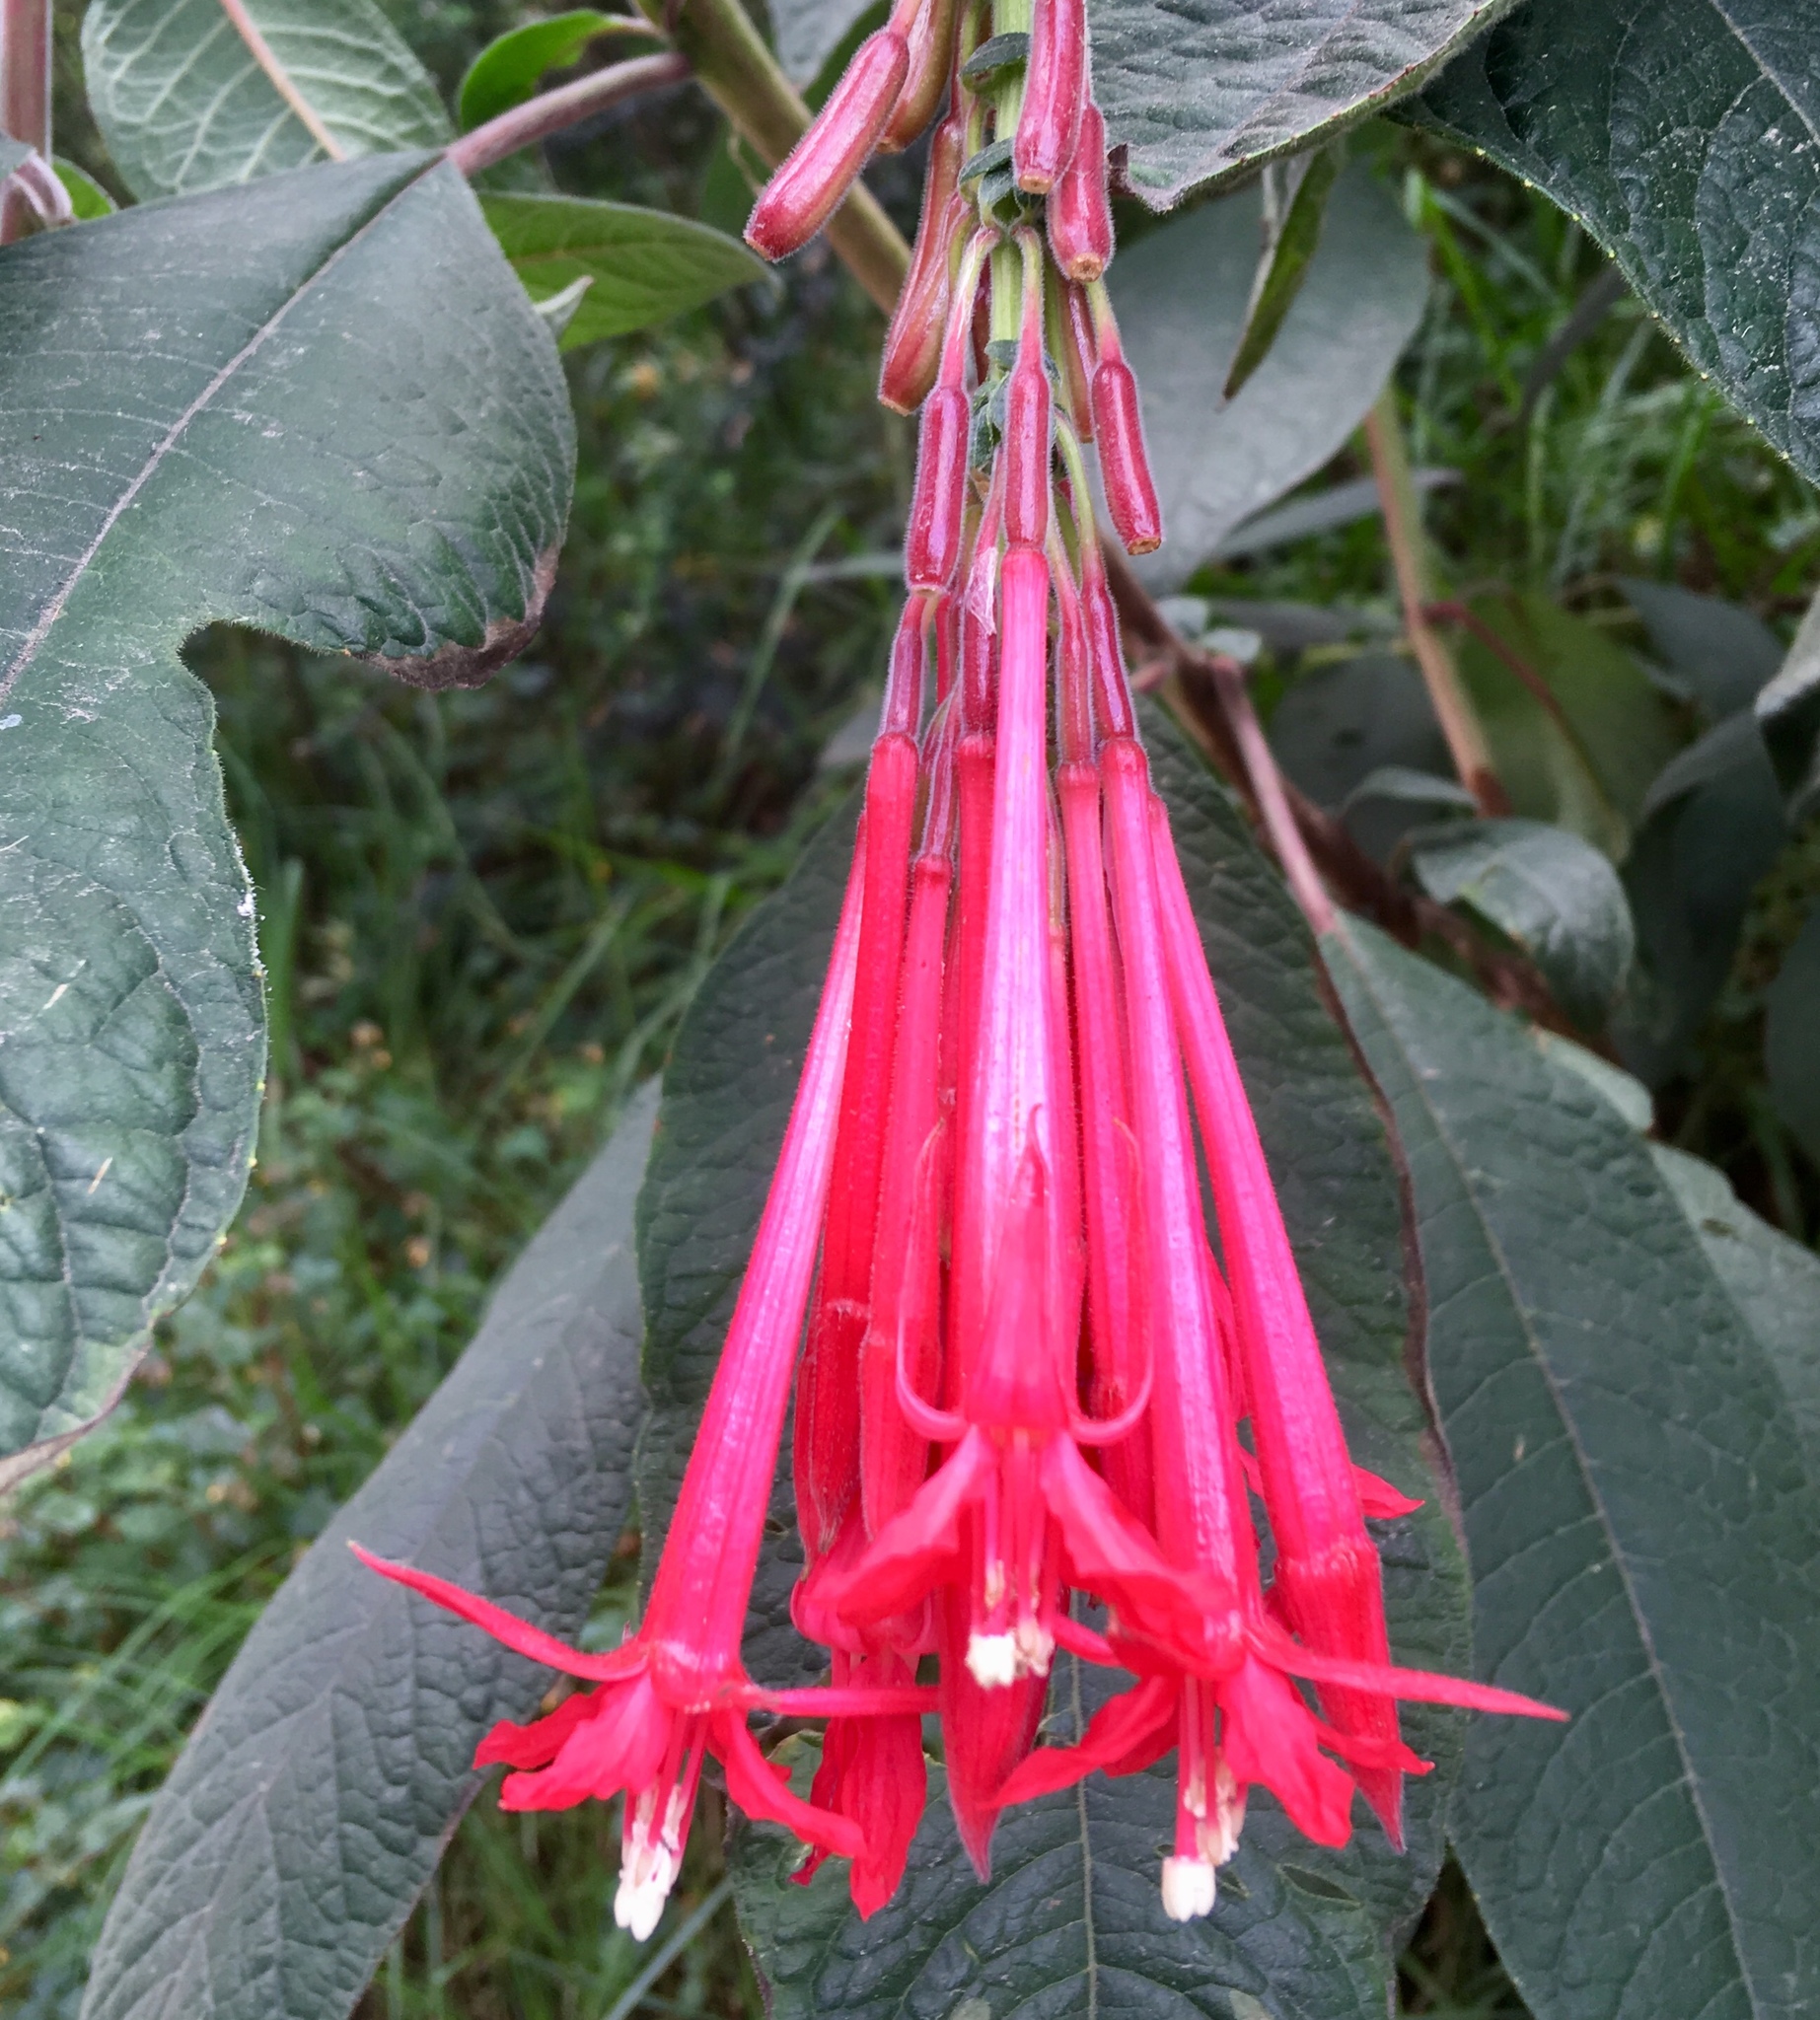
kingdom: Plantae
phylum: Tracheophyta
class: Magnoliopsida
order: Myrtales
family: Onagraceae
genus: Fuchsia
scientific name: Fuchsia boliviana
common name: Bolivian fuchsia
